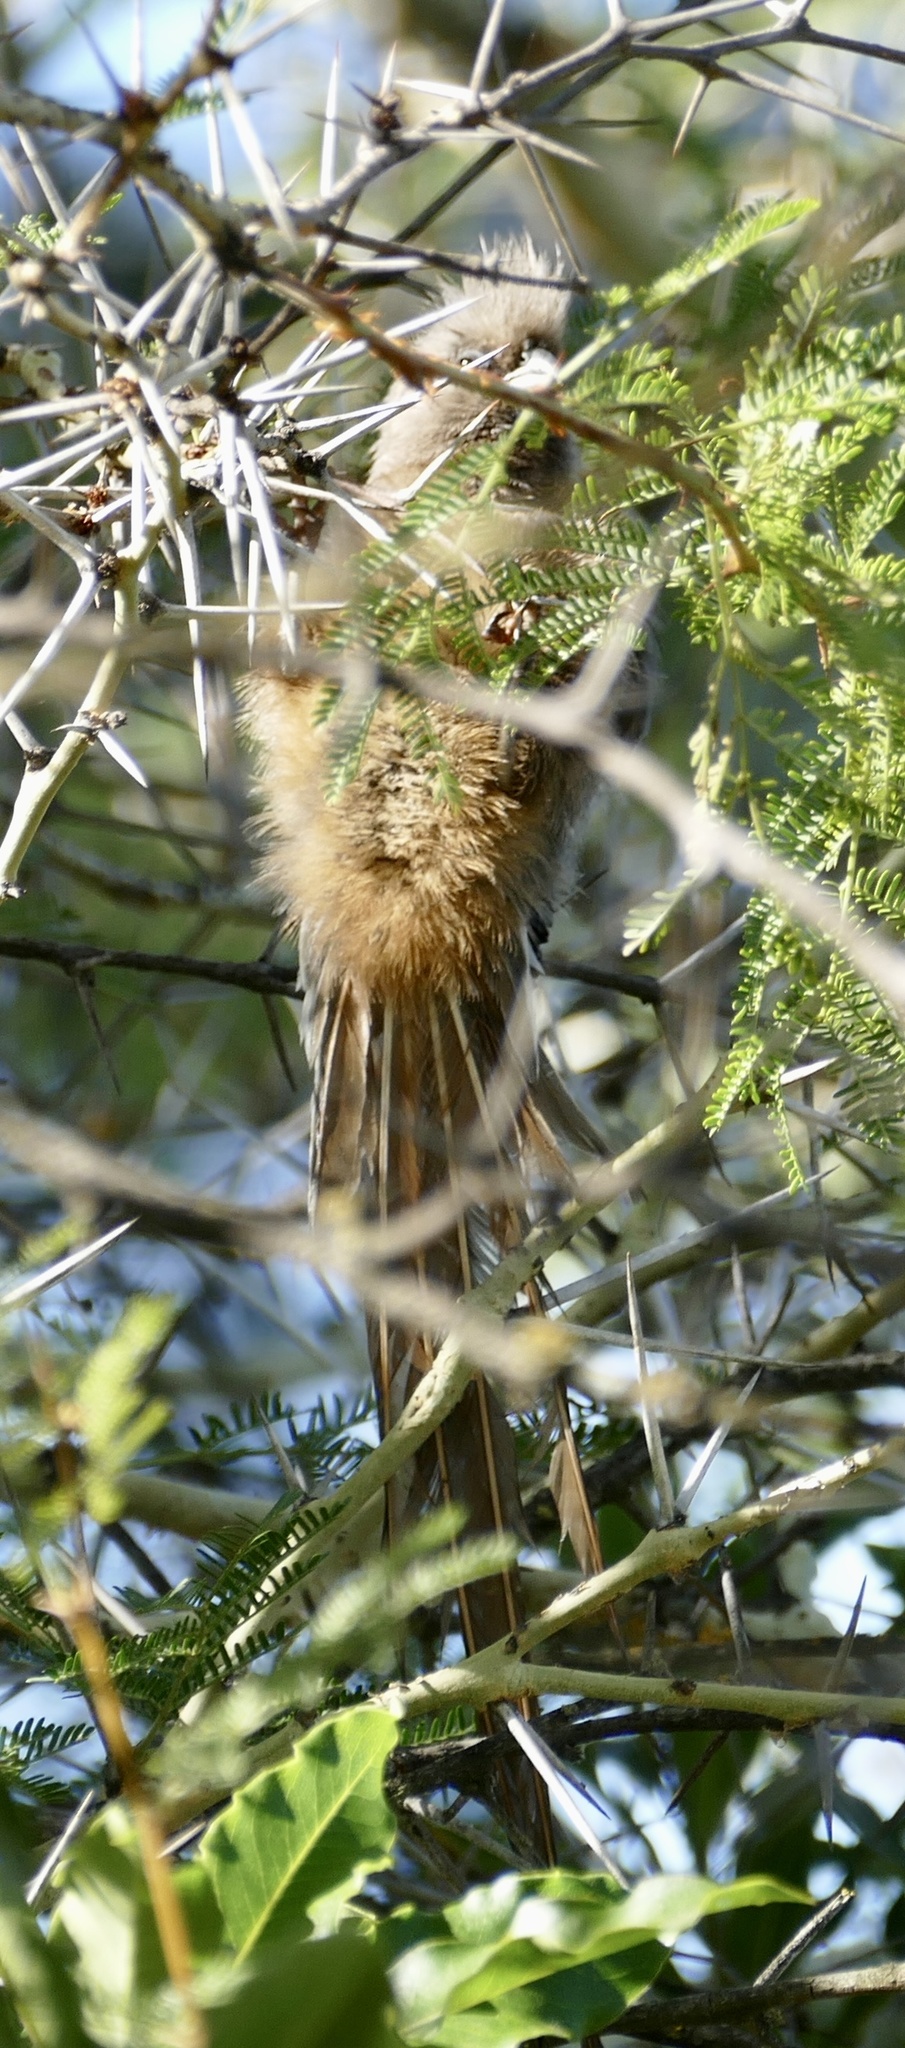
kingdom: Animalia
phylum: Chordata
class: Aves
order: Coliiformes
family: Coliidae
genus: Colius
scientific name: Colius striatus
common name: Speckled mousebird
